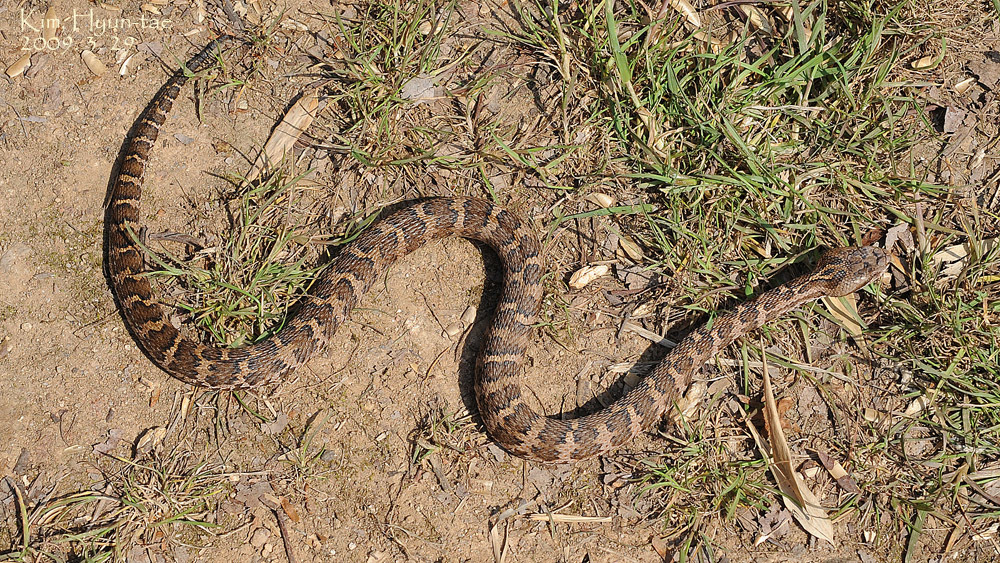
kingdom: Animalia
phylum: Chordata
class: Squamata
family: Viperidae
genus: Gloydius
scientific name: Gloydius intermedius
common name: Central asian pit viper
